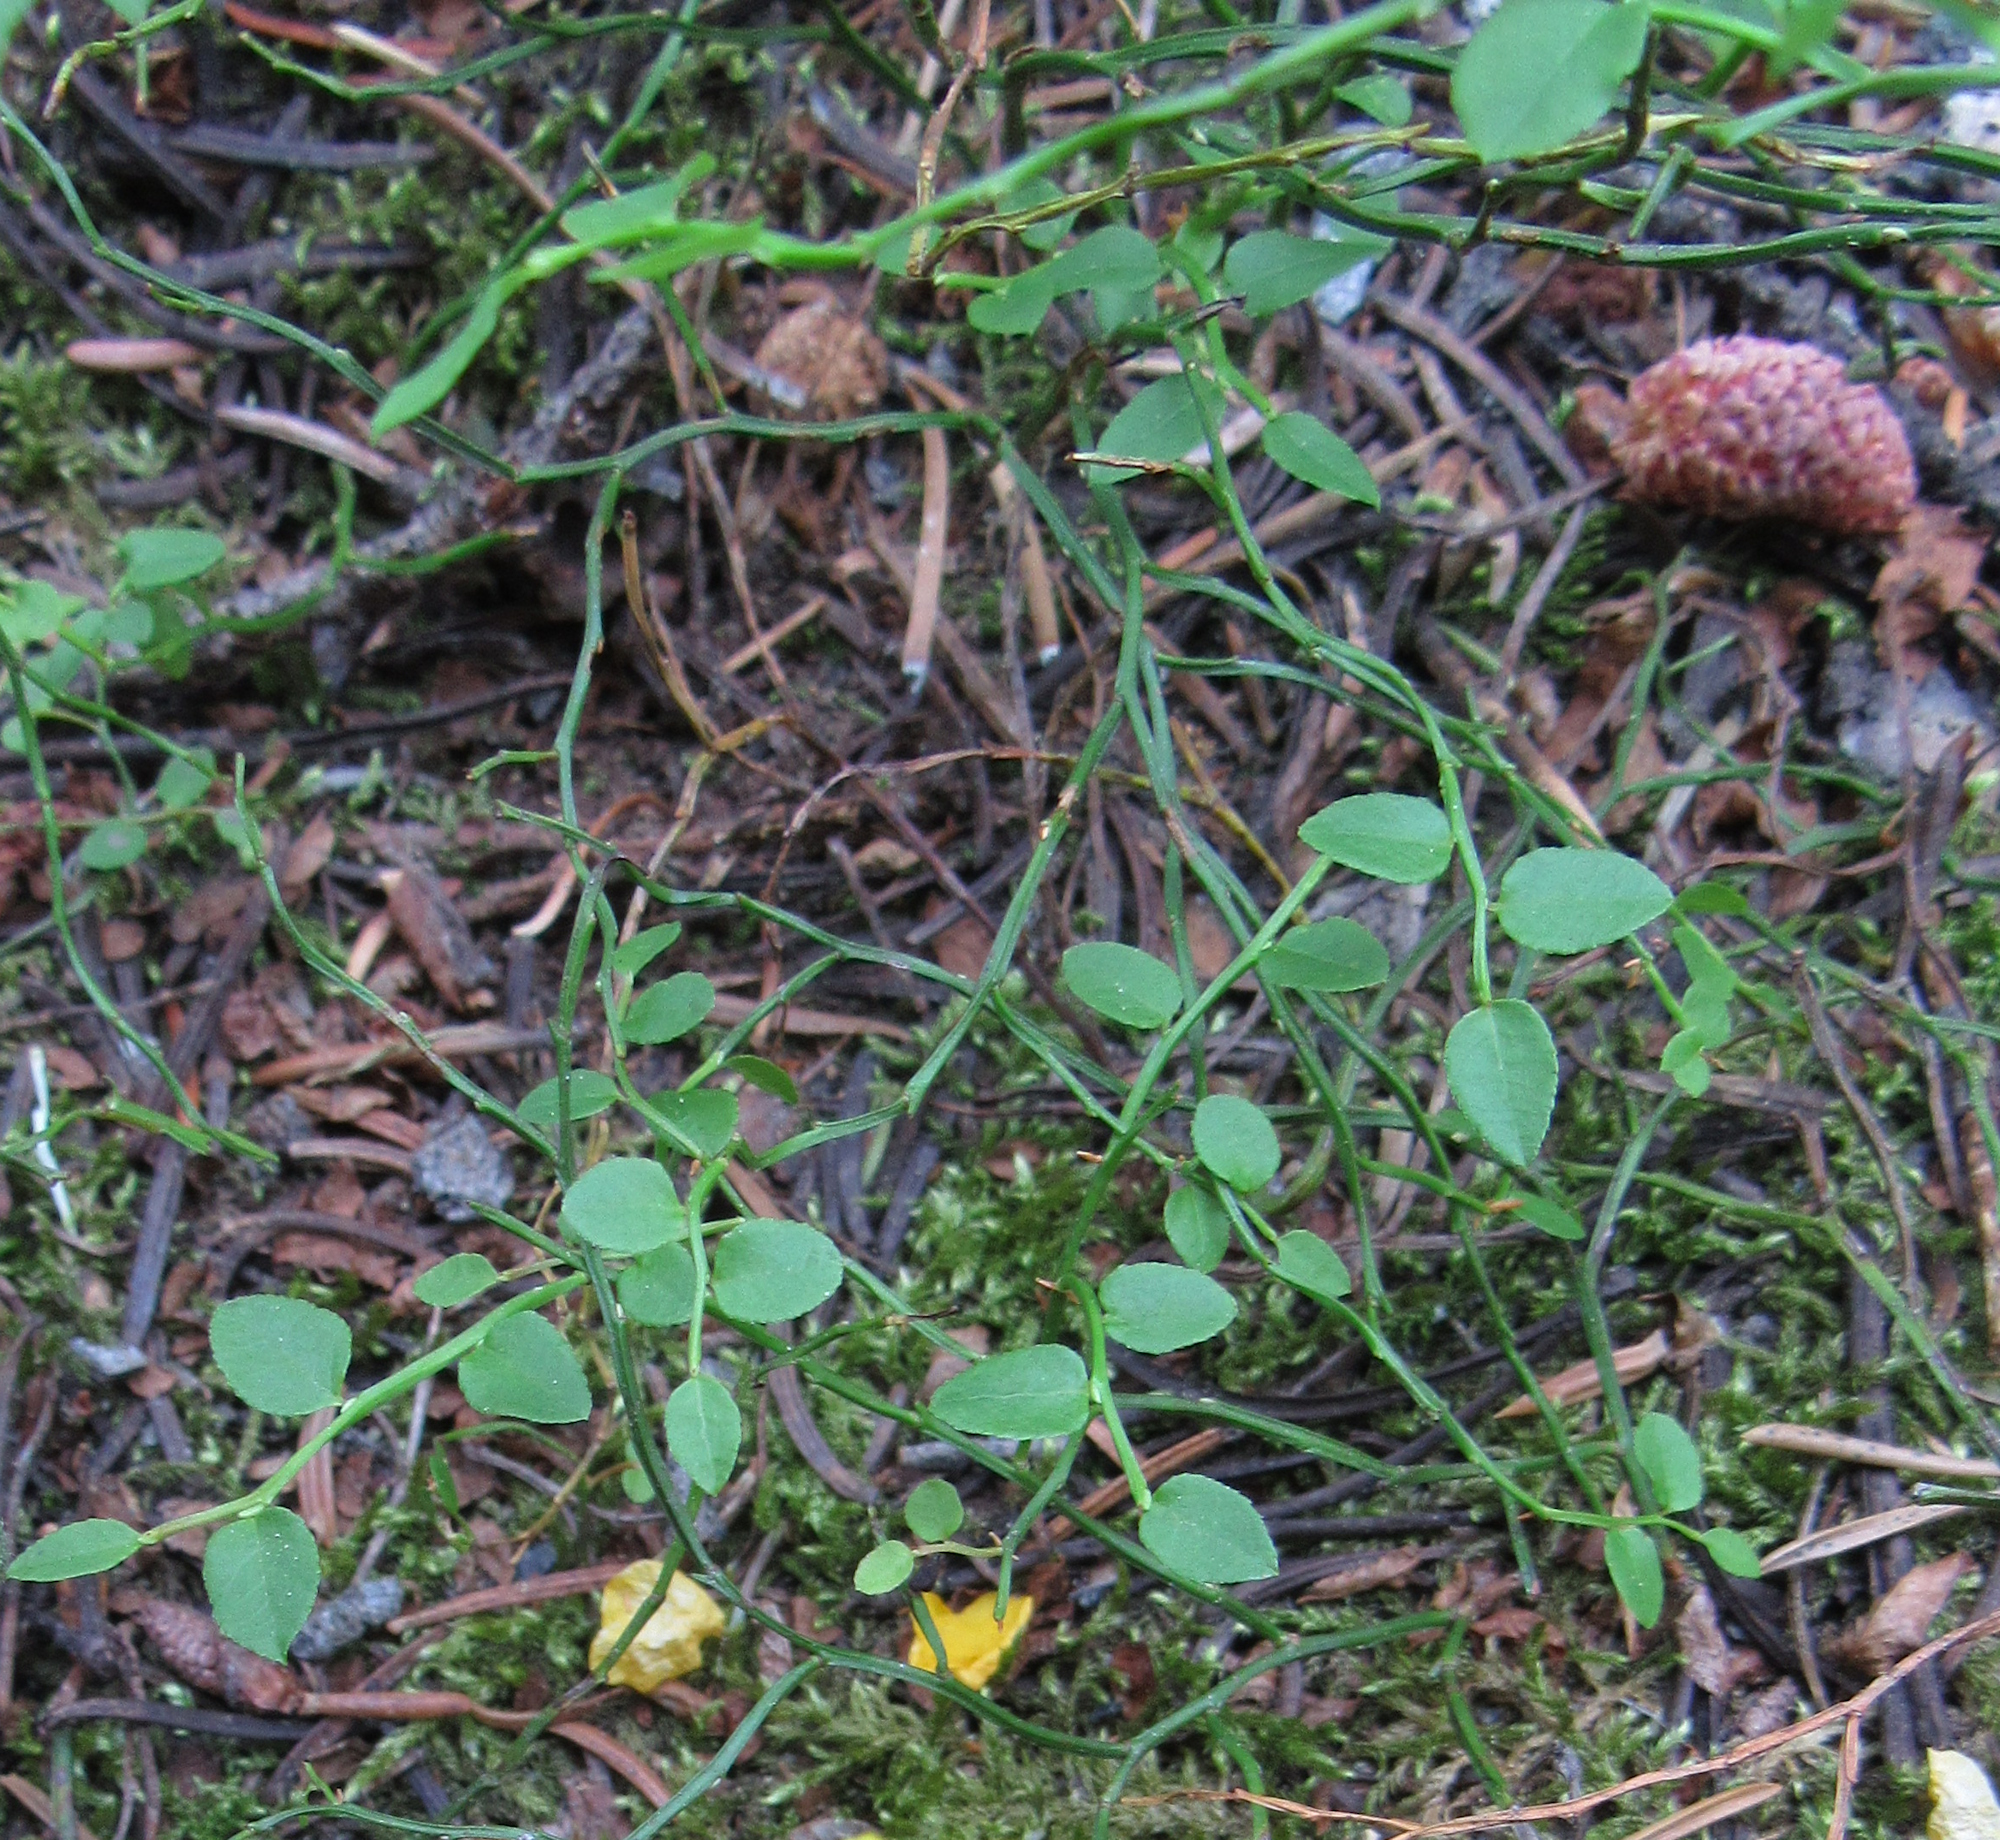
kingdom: Plantae
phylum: Tracheophyta
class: Magnoliopsida
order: Ericales
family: Ericaceae
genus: Vaccinium
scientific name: Vaccinium scoparium
